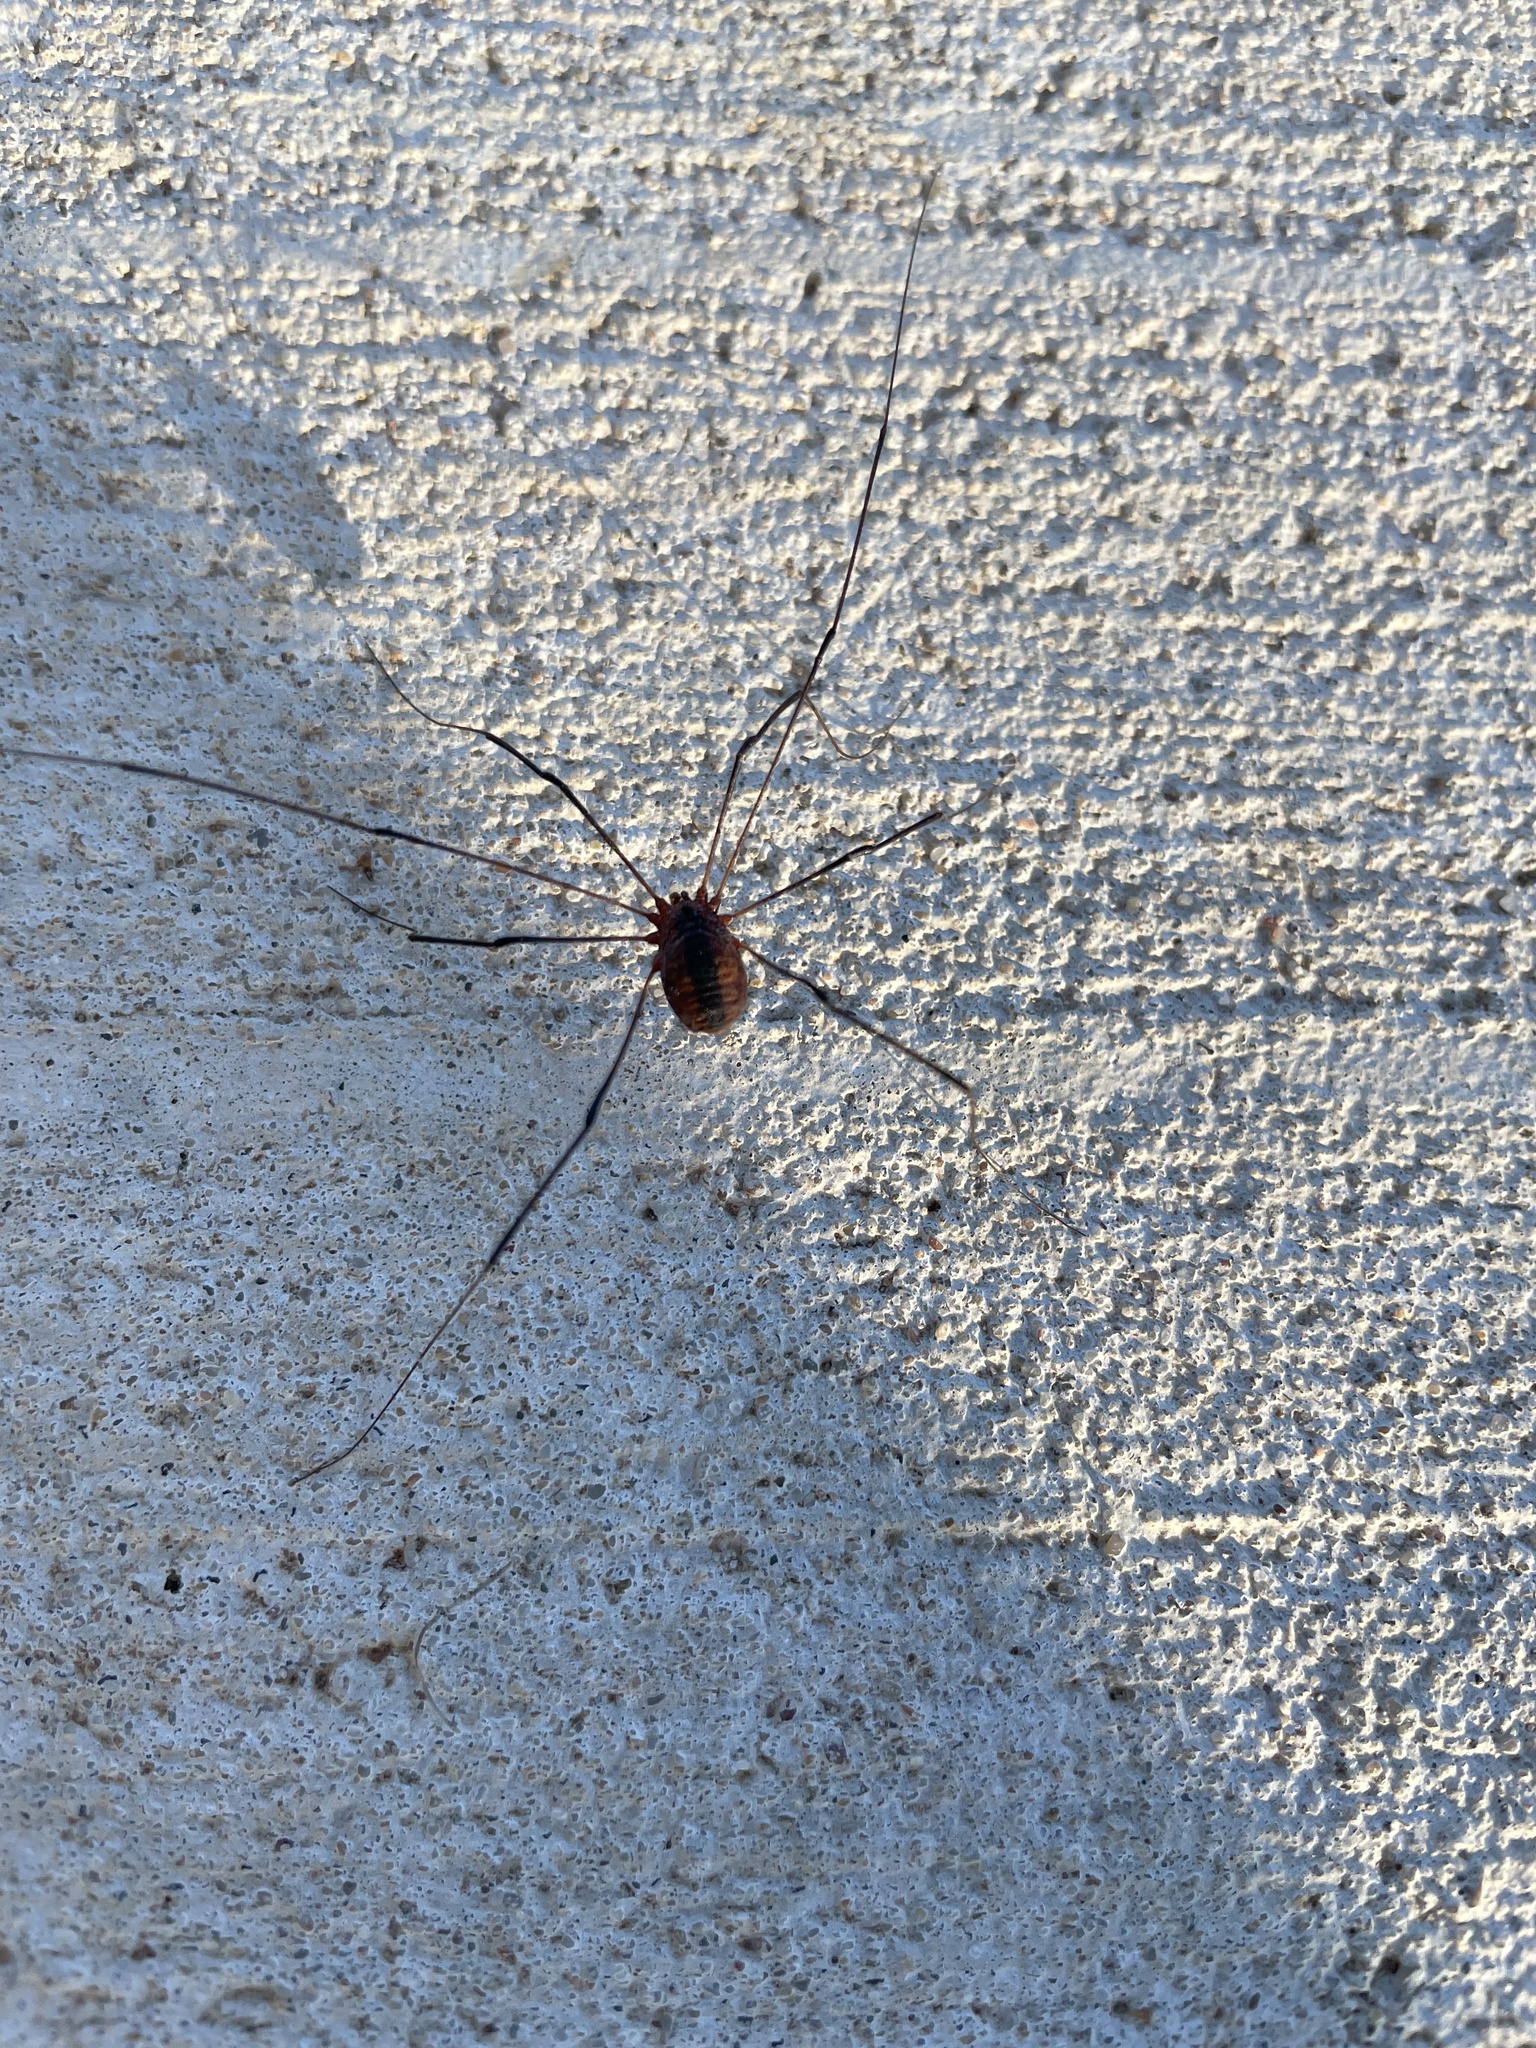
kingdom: Animalia
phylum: Arthropoda
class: Arachnida
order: Opiliones
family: Sclerosomatidae
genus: Leiobunum
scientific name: Leiobunum vittatum
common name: Eastern harvestman
